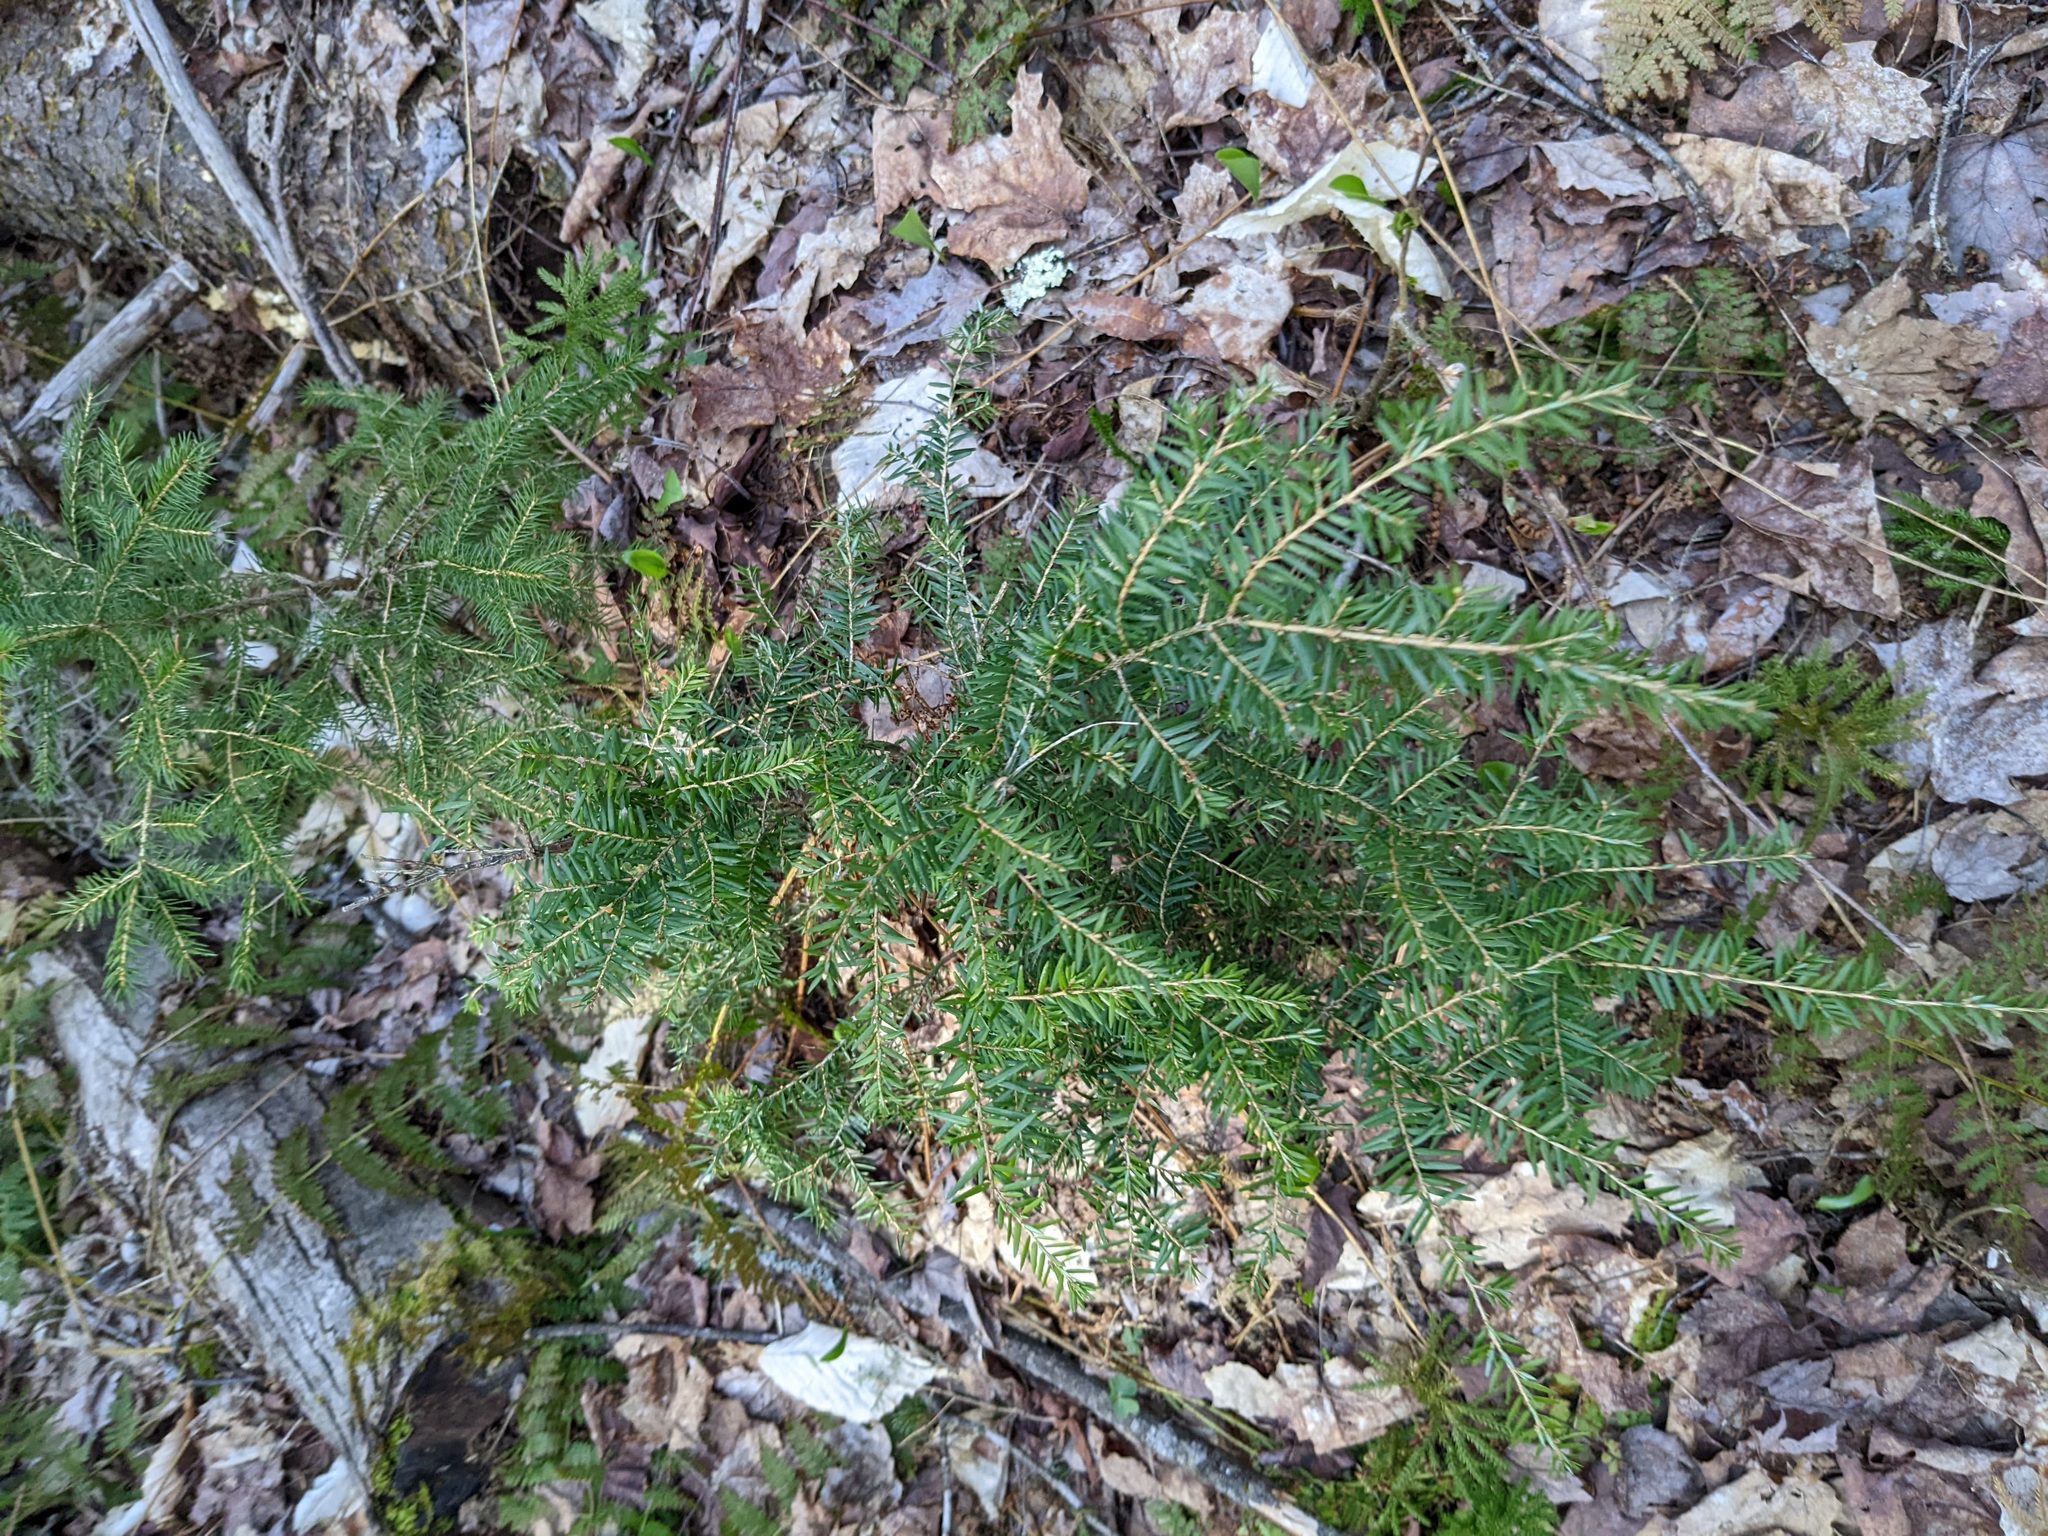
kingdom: Plantae
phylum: Tracheophyta
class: Pinopsida
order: Pinales
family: Pinaceae
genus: Tsuga
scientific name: Tsuga canadensis
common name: Eastern hemlock
